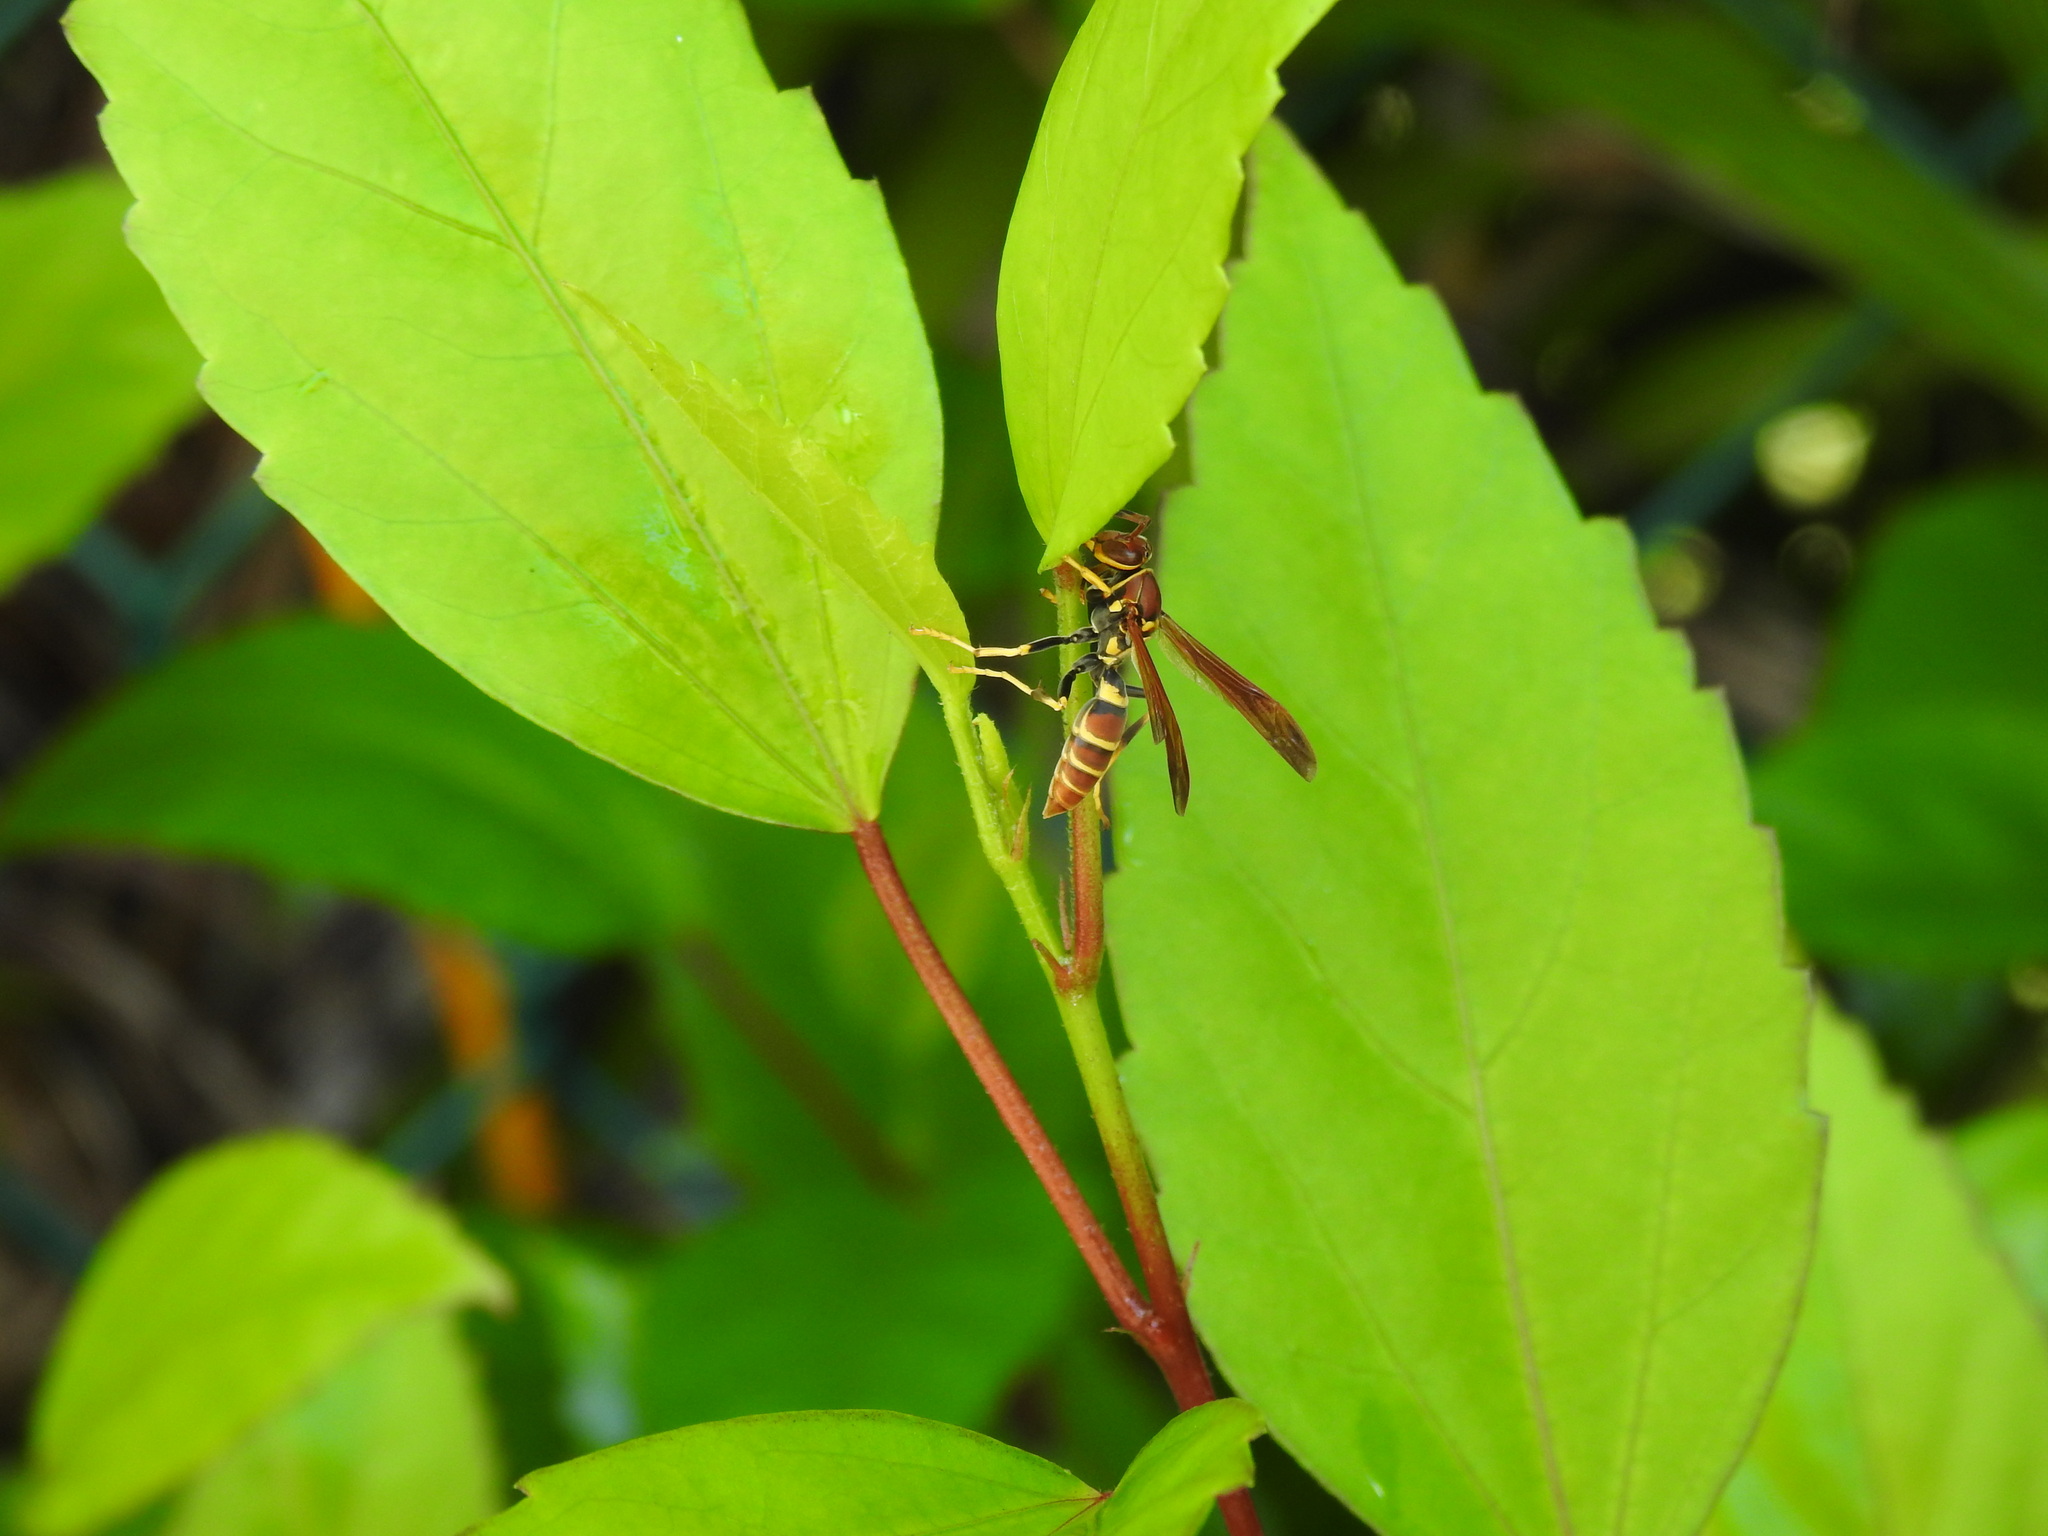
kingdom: Animalia
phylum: Arthropoda
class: Insecta
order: Hymenoptera
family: Eumenidae
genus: Polistes
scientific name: Polistes crinitus
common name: Jack spaniard
